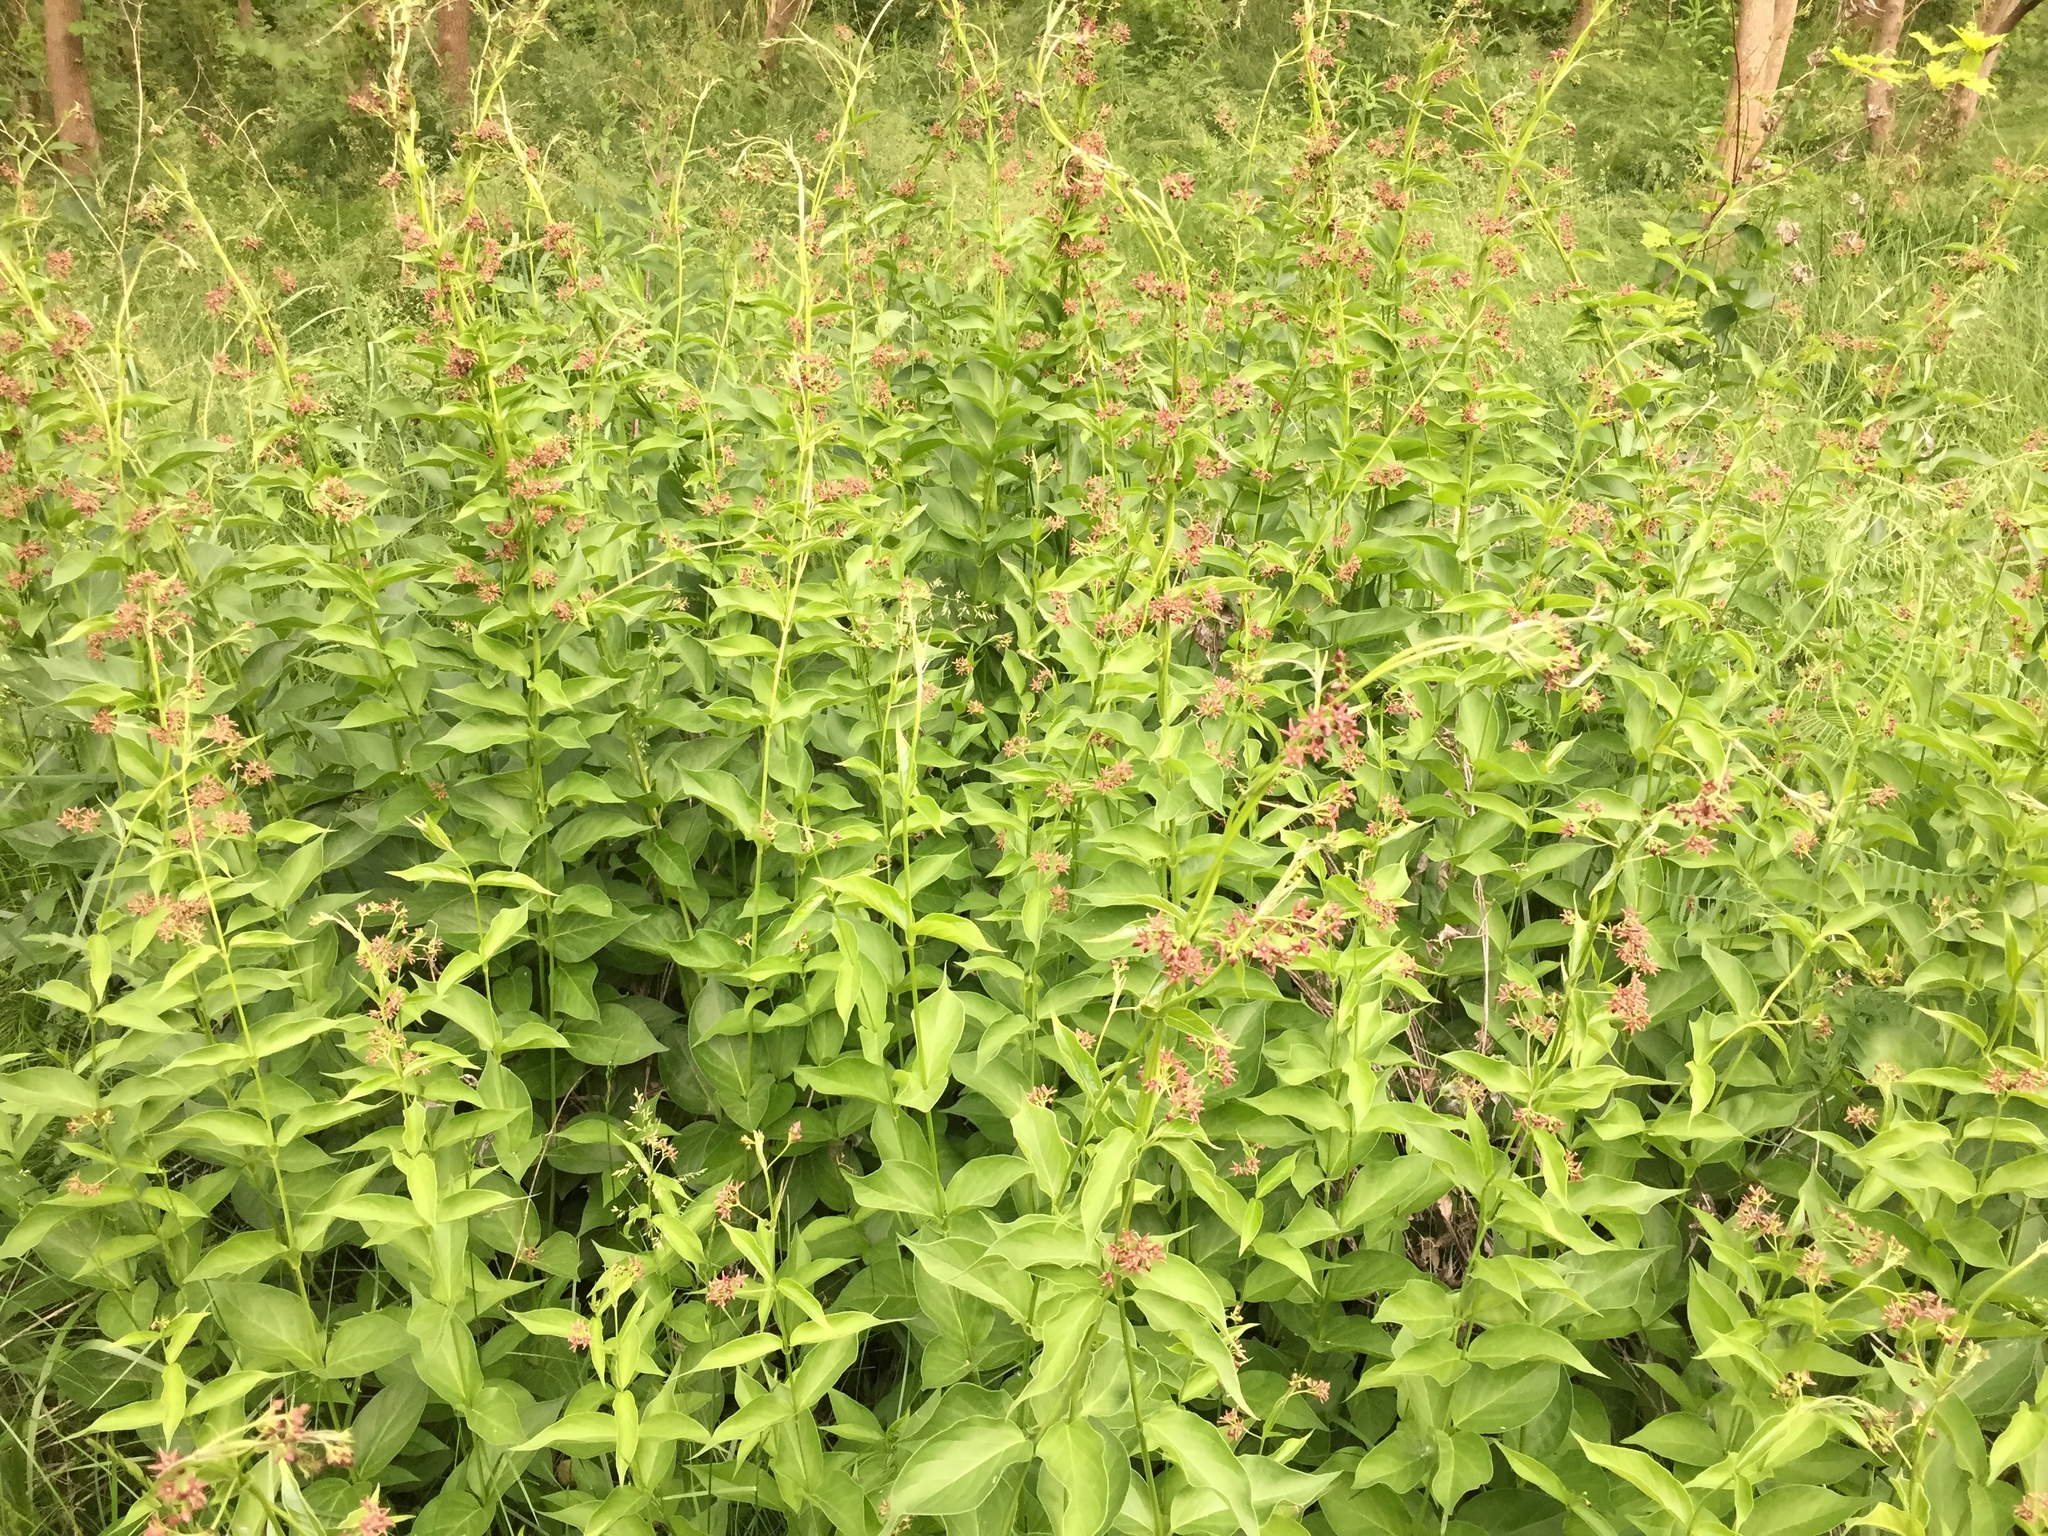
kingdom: Plantae
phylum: Tracheophyta
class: Magnoliopsida
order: Gentianales
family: Apocynaceae
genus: Vincetoxicum
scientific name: Vincetoxicum rossicum
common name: Dog-strangling vine
